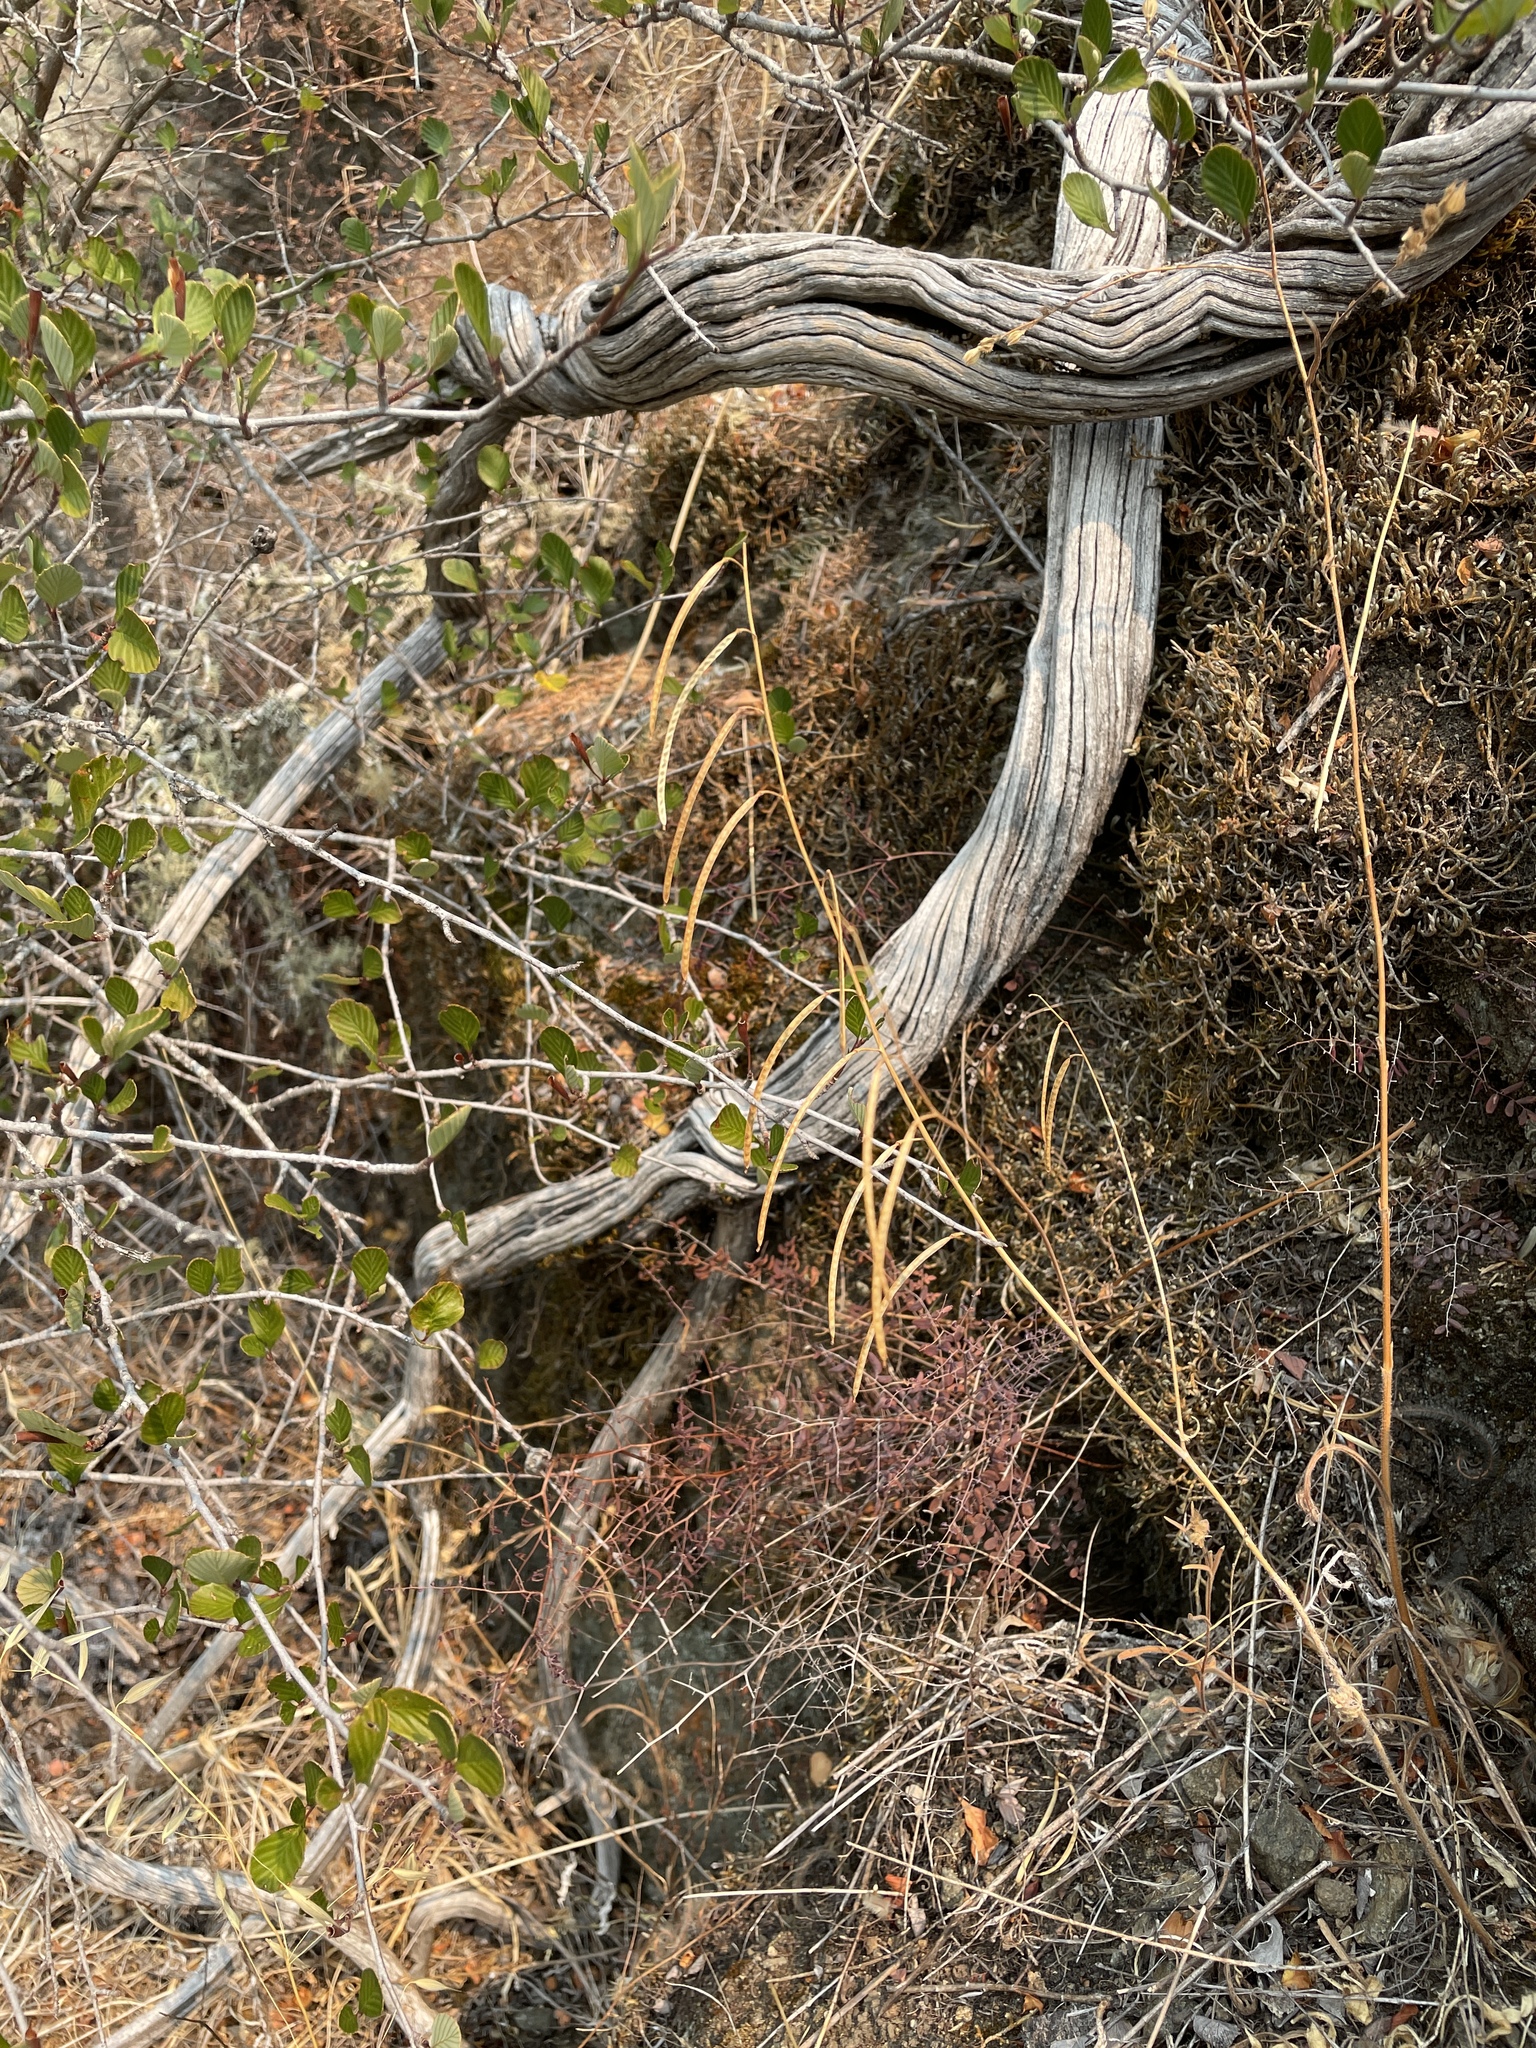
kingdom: Plantae
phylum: Tracheophyta
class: Magnoliopsida
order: Brassicales
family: Brassicaceae
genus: Streptanthus
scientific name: Streptanthus glandulosus
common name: Jewel-flower
